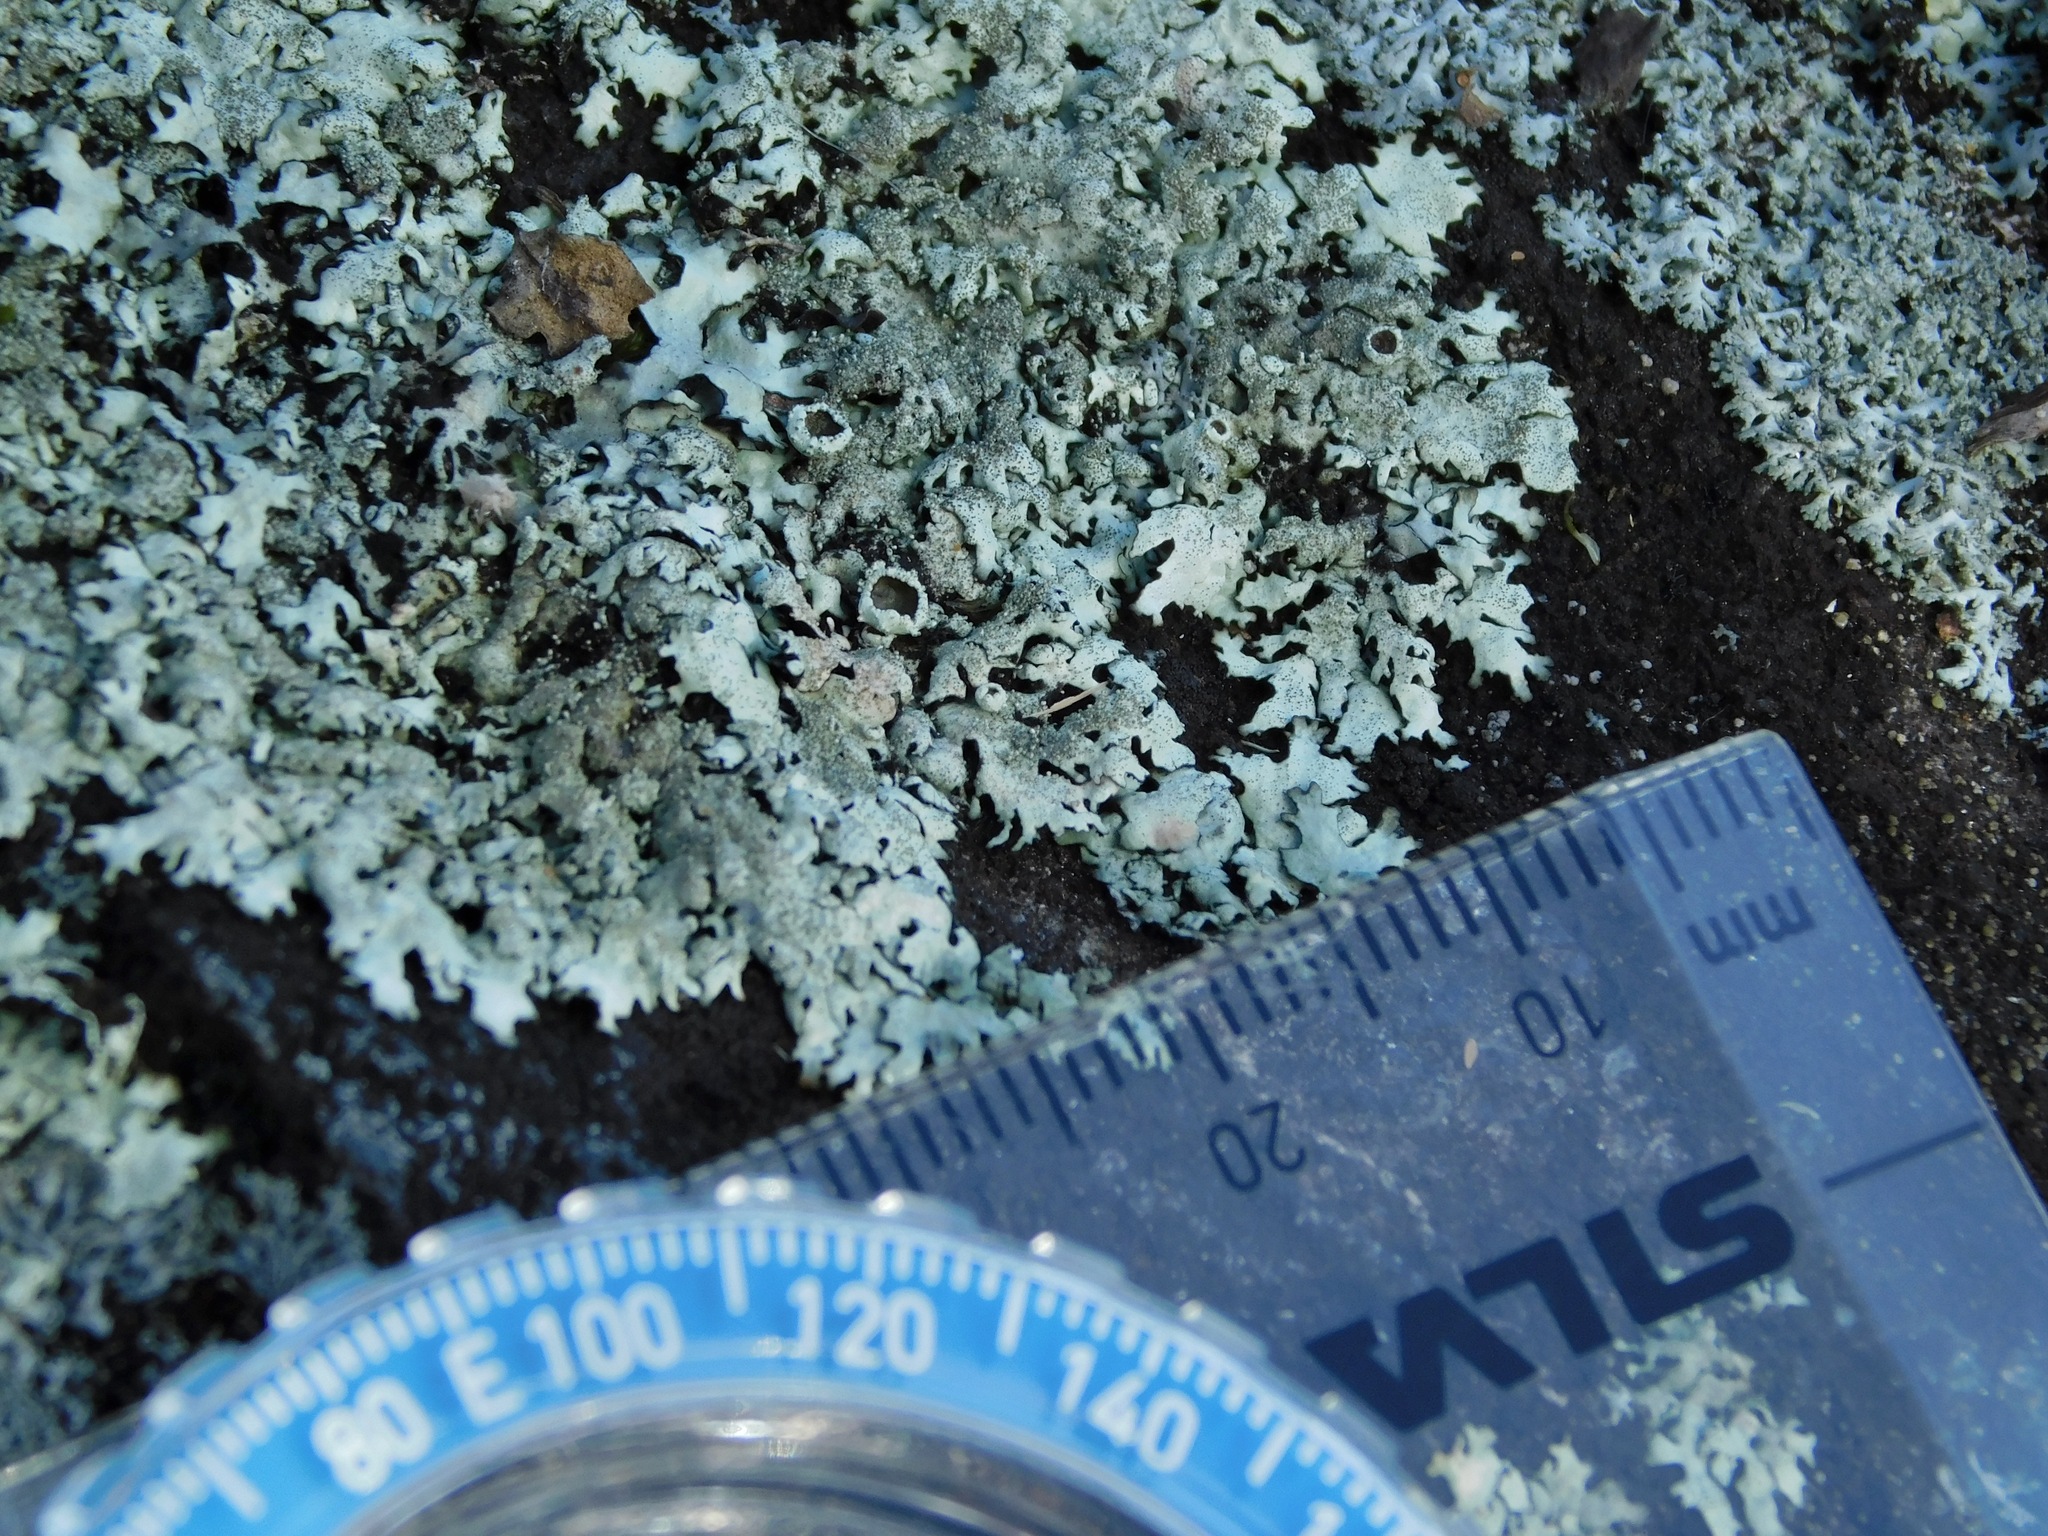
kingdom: Fungi
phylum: Ascomycota
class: Lecanoromycetes
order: Lecanorales
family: Parmeliaceae
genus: Xanthoparmelia
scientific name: Xanthoparmelia conspersa
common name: Peppered rock shield
